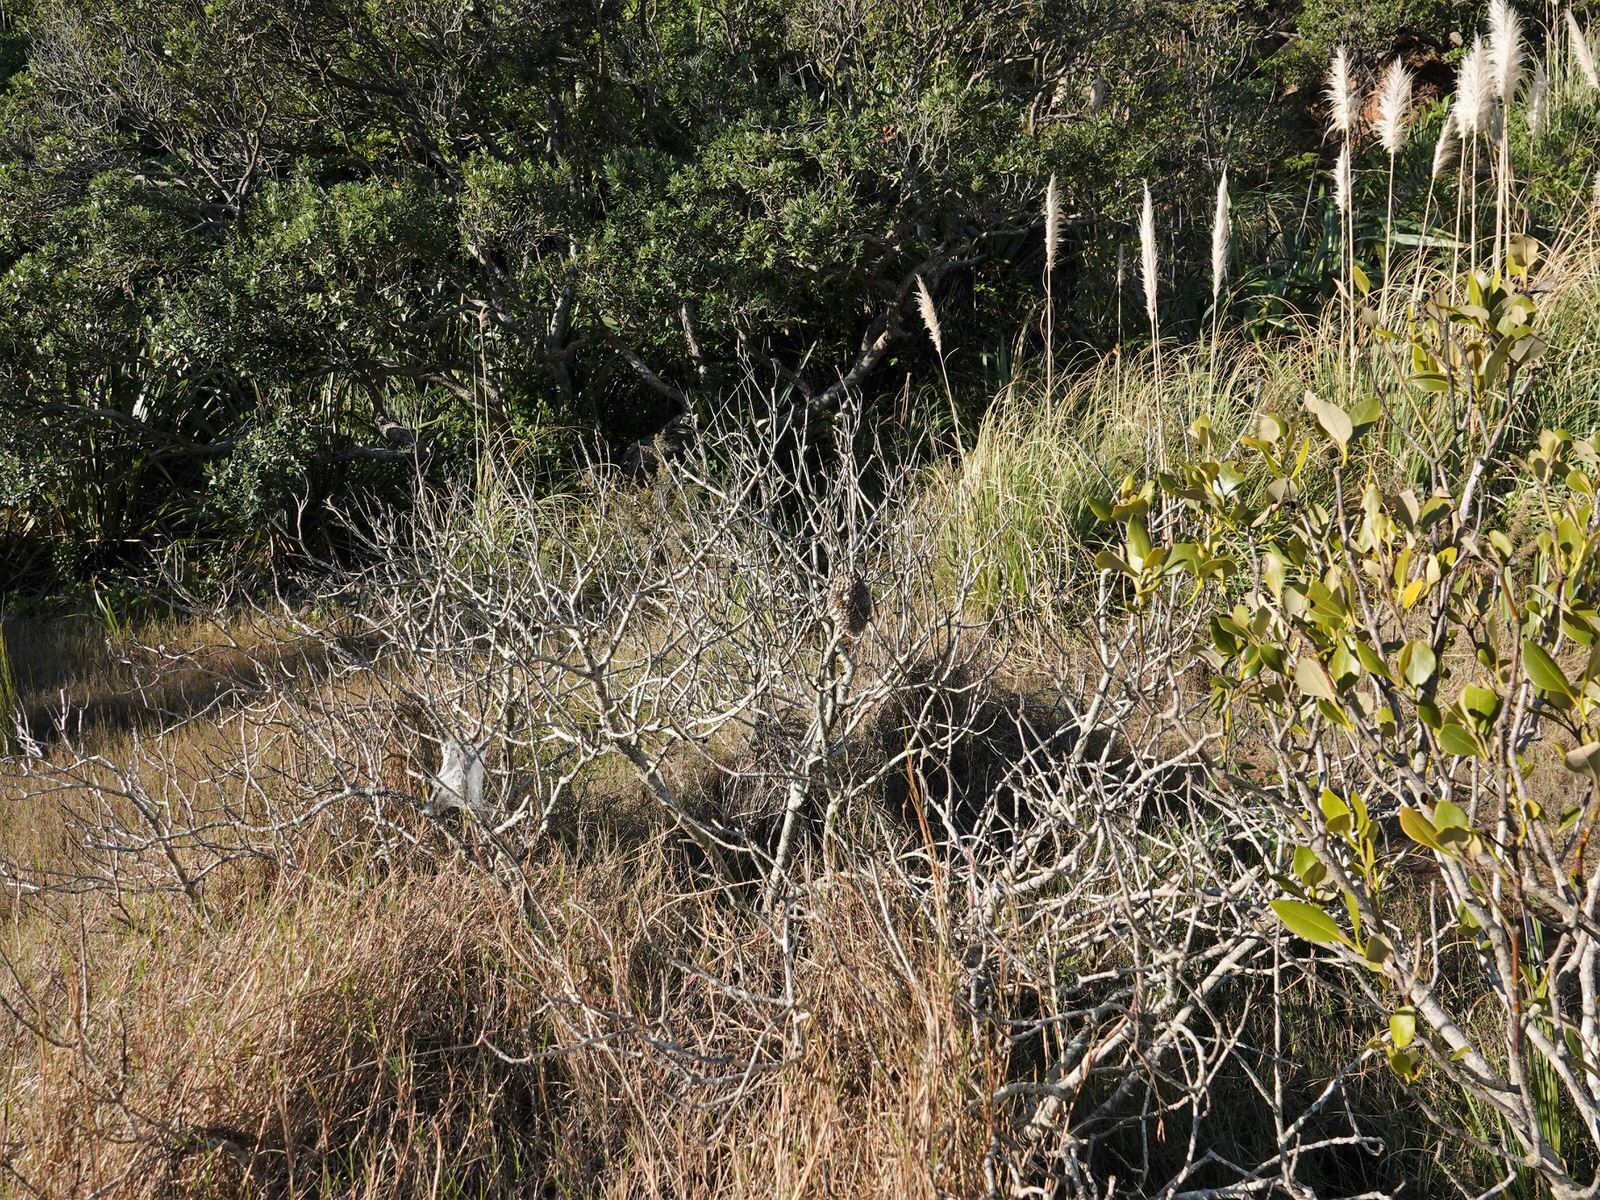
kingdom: Animalia
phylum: Arthropoda
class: Insecta
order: Hymenoptera
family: Eumenidae
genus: Polistes
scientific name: Polistes chinensis
